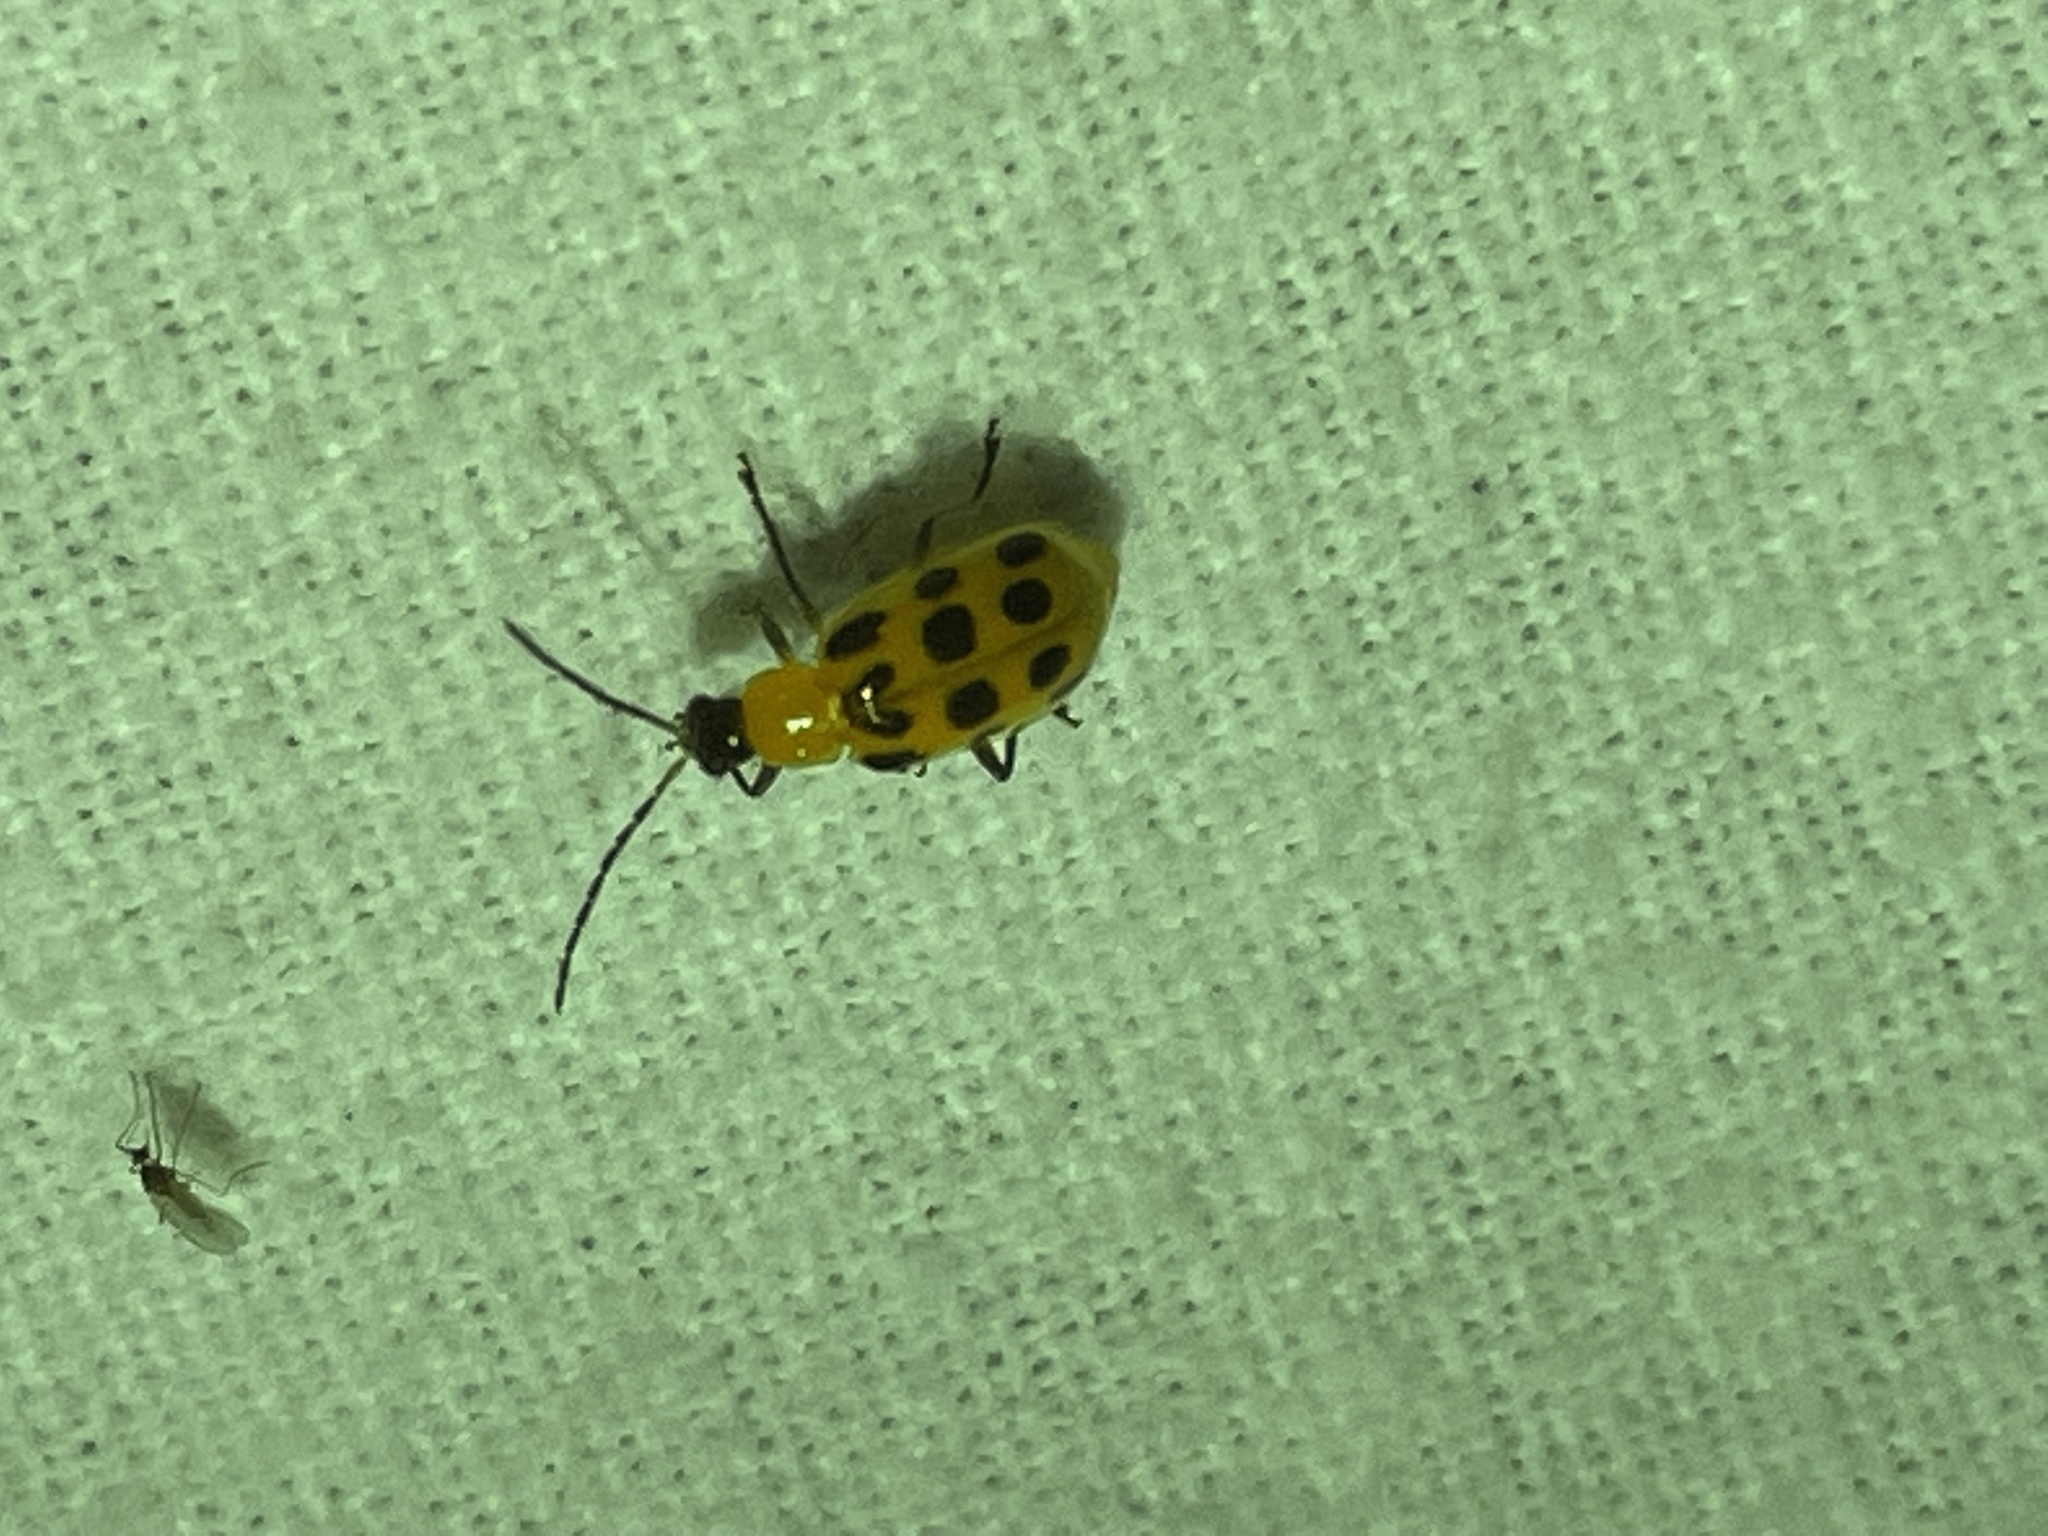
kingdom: Animalia
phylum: Arthropoda
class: Insecta
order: Coleoptera
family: Chrysomelidae
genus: Diabrotica
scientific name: Diabrotica undecimpunctata
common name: Spotted cucumber beetle
